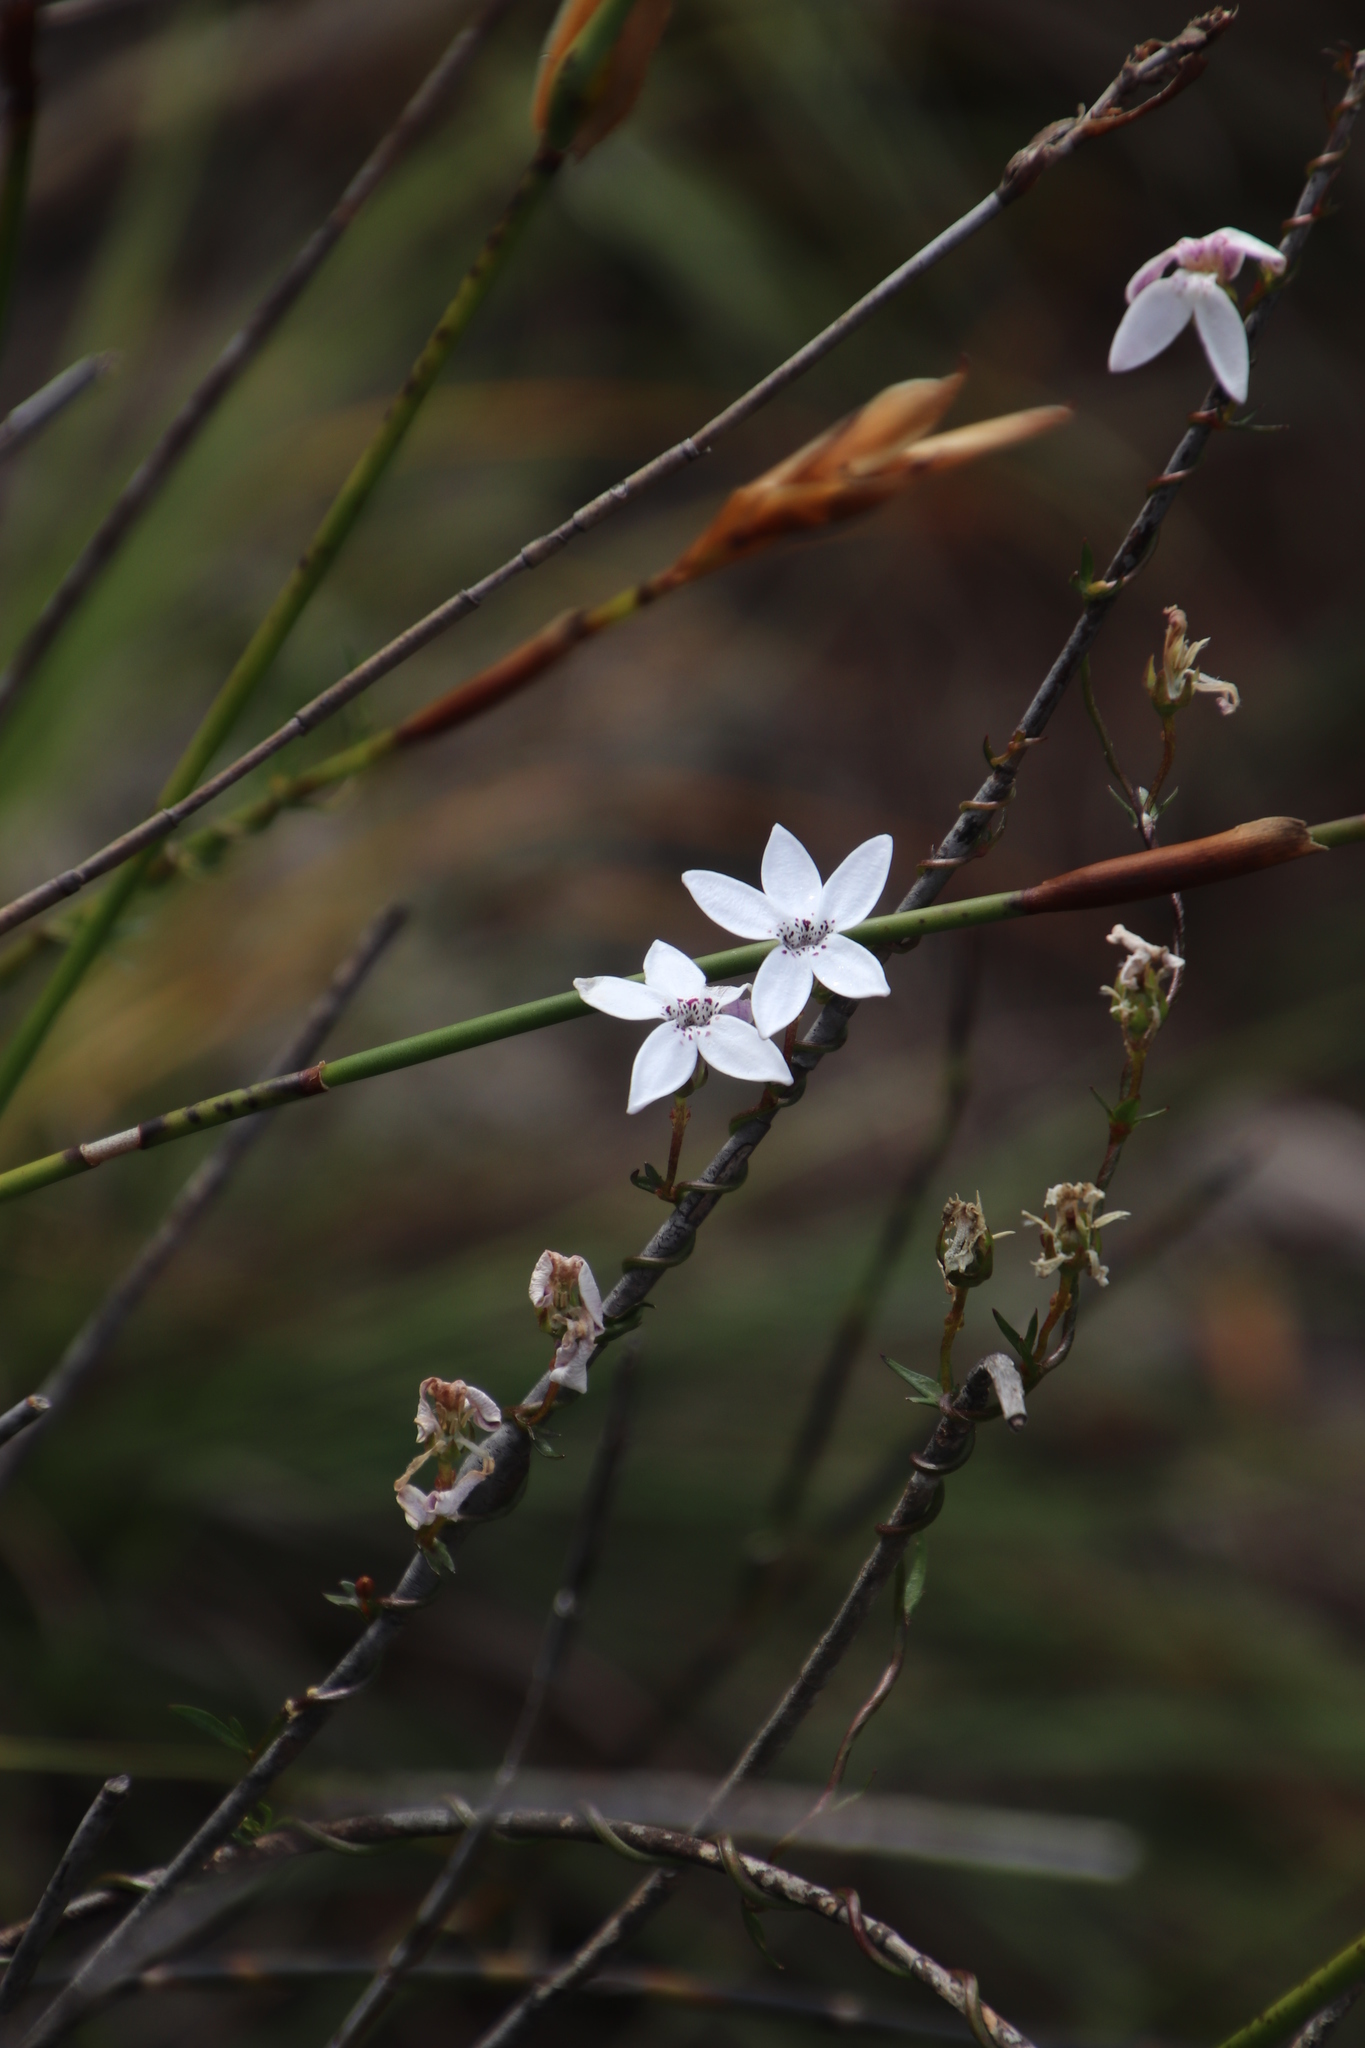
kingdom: Plantae
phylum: Tracheophyta
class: Magnoliopsida
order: Asterales
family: Campanulaceae
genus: Cyphia
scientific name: Cyphia volubilis
